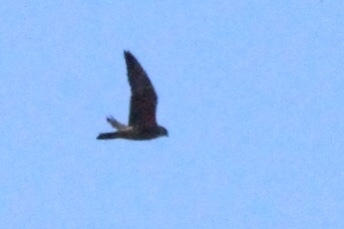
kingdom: Animalia
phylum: Chordata
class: Aves
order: Falconiformes
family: Falconidae
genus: Falco
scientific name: Falco peregrinus
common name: Peregrine falcon
